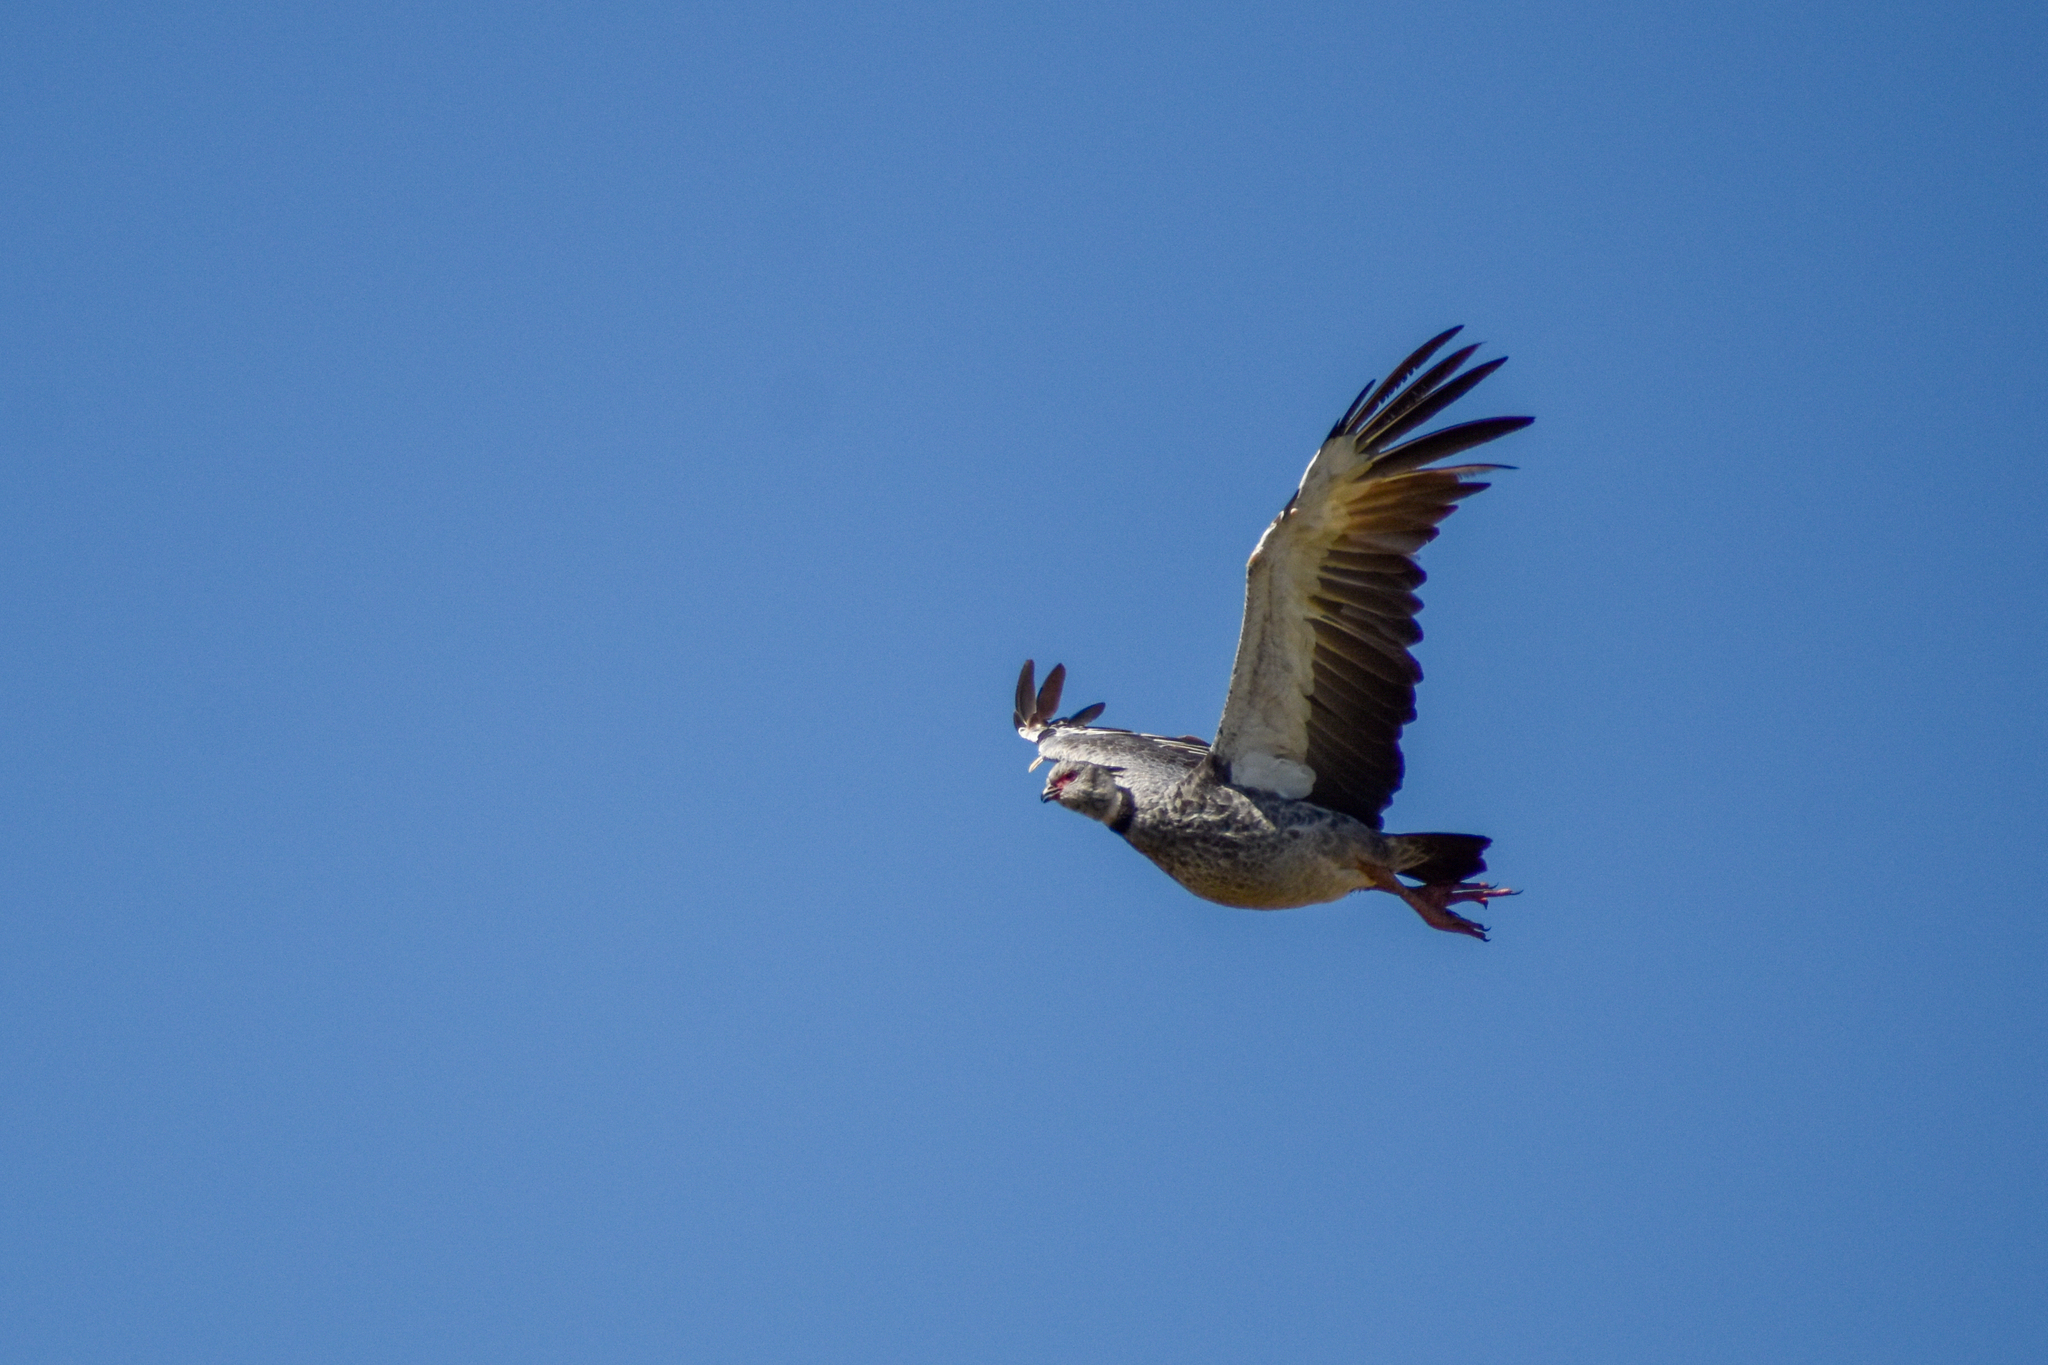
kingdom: Animalia
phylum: Chordata
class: Aves
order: Anseriformes
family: Anhimidae
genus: Chauna
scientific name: Chauna torquata
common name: Southern screamer
